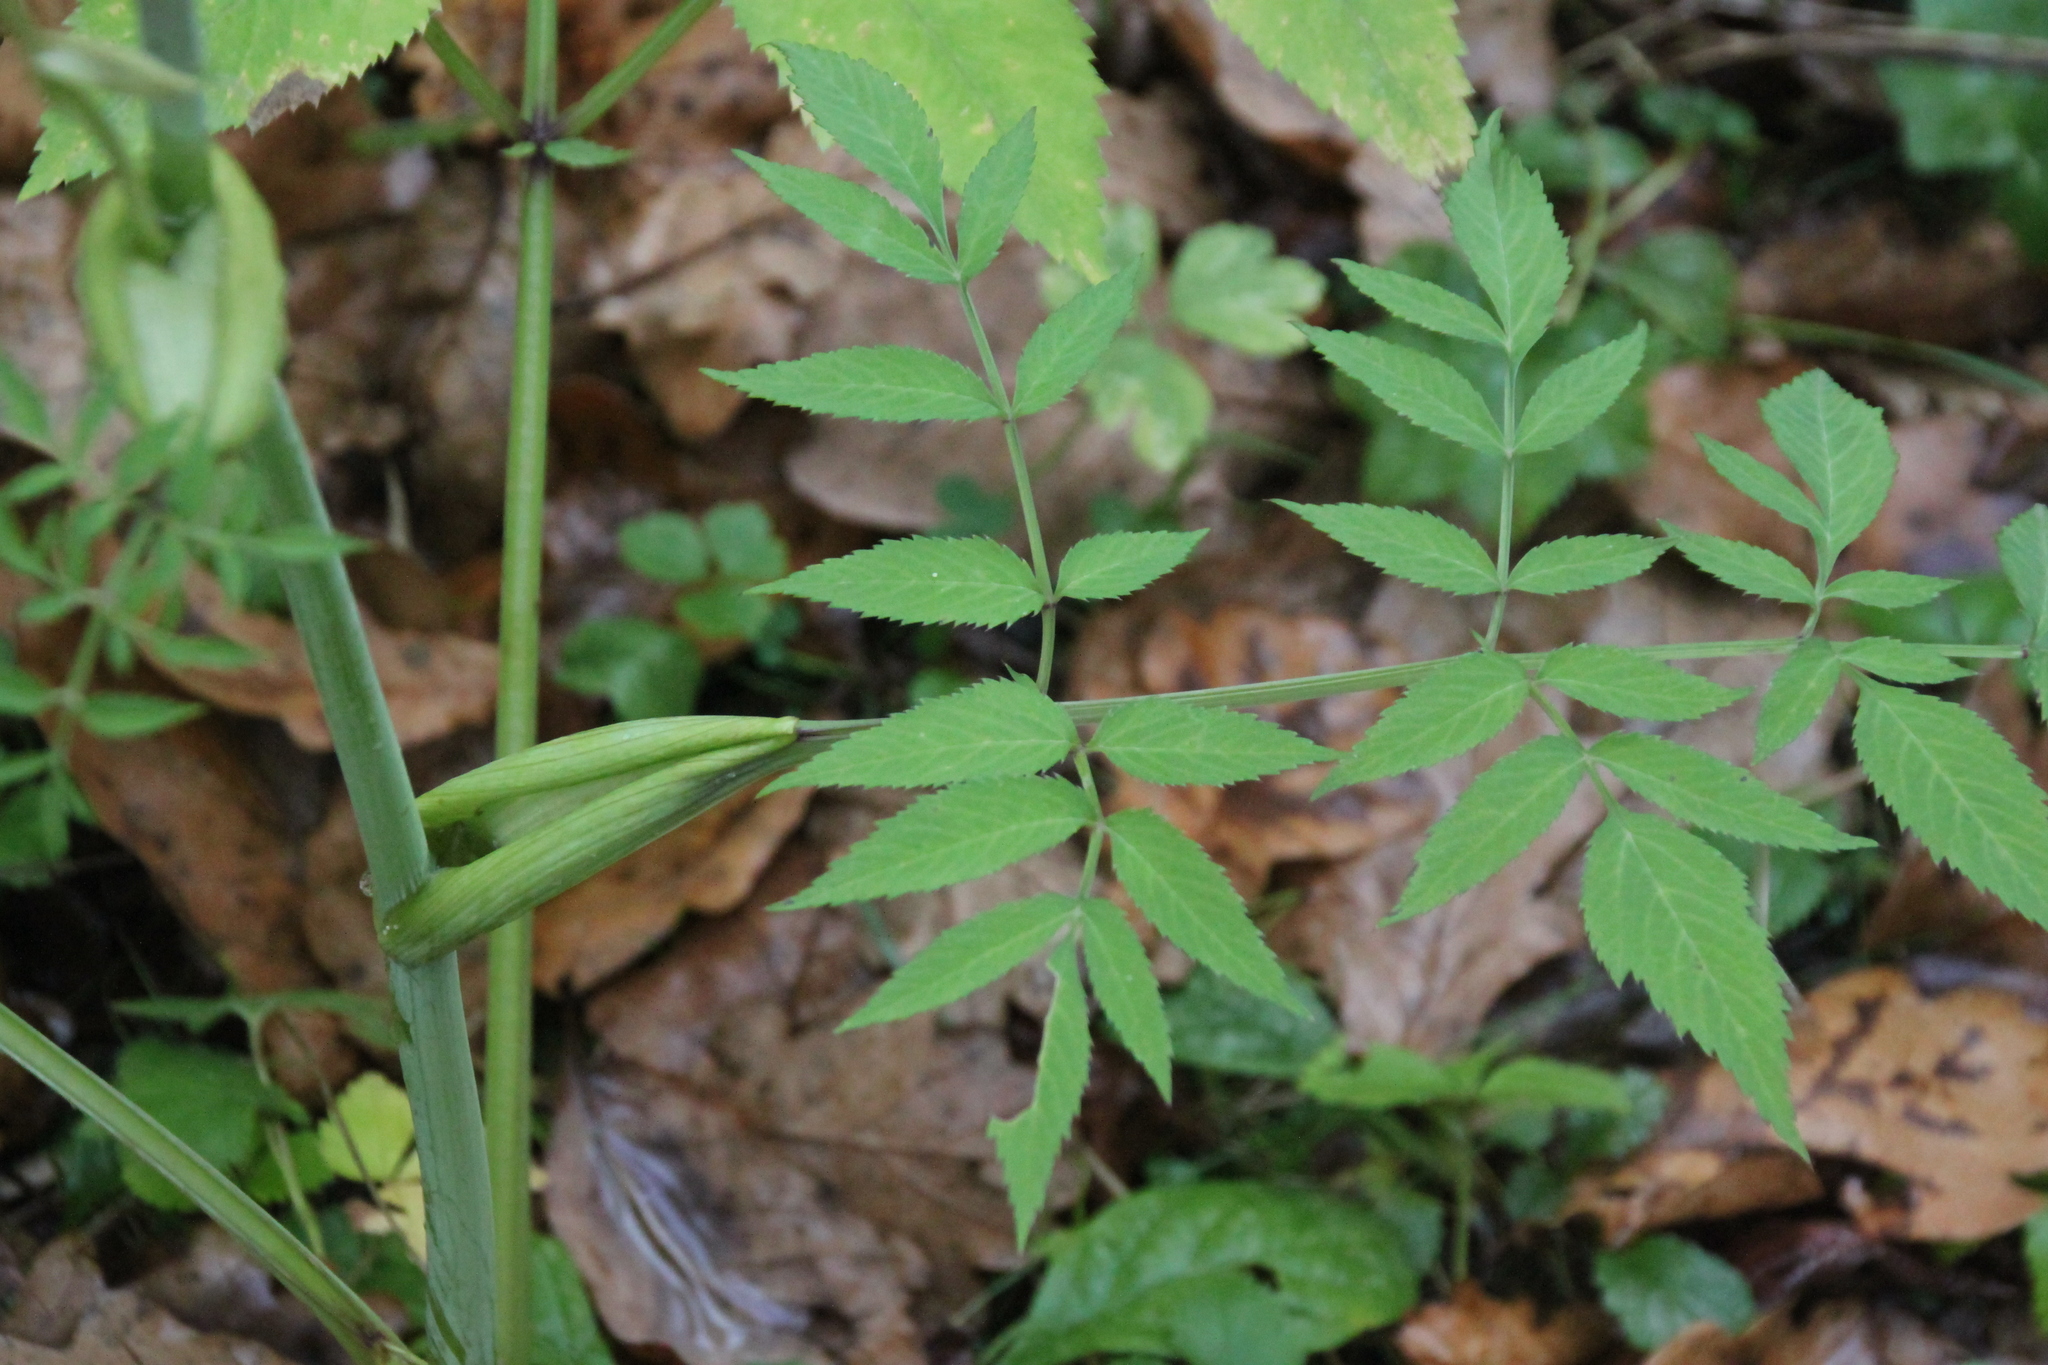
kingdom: Plantae
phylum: Tracheophyta
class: Magnoliopsida
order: Apiales
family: Apiaceae
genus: Angelica
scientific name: Angelica sylvestris
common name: Wild angelica
